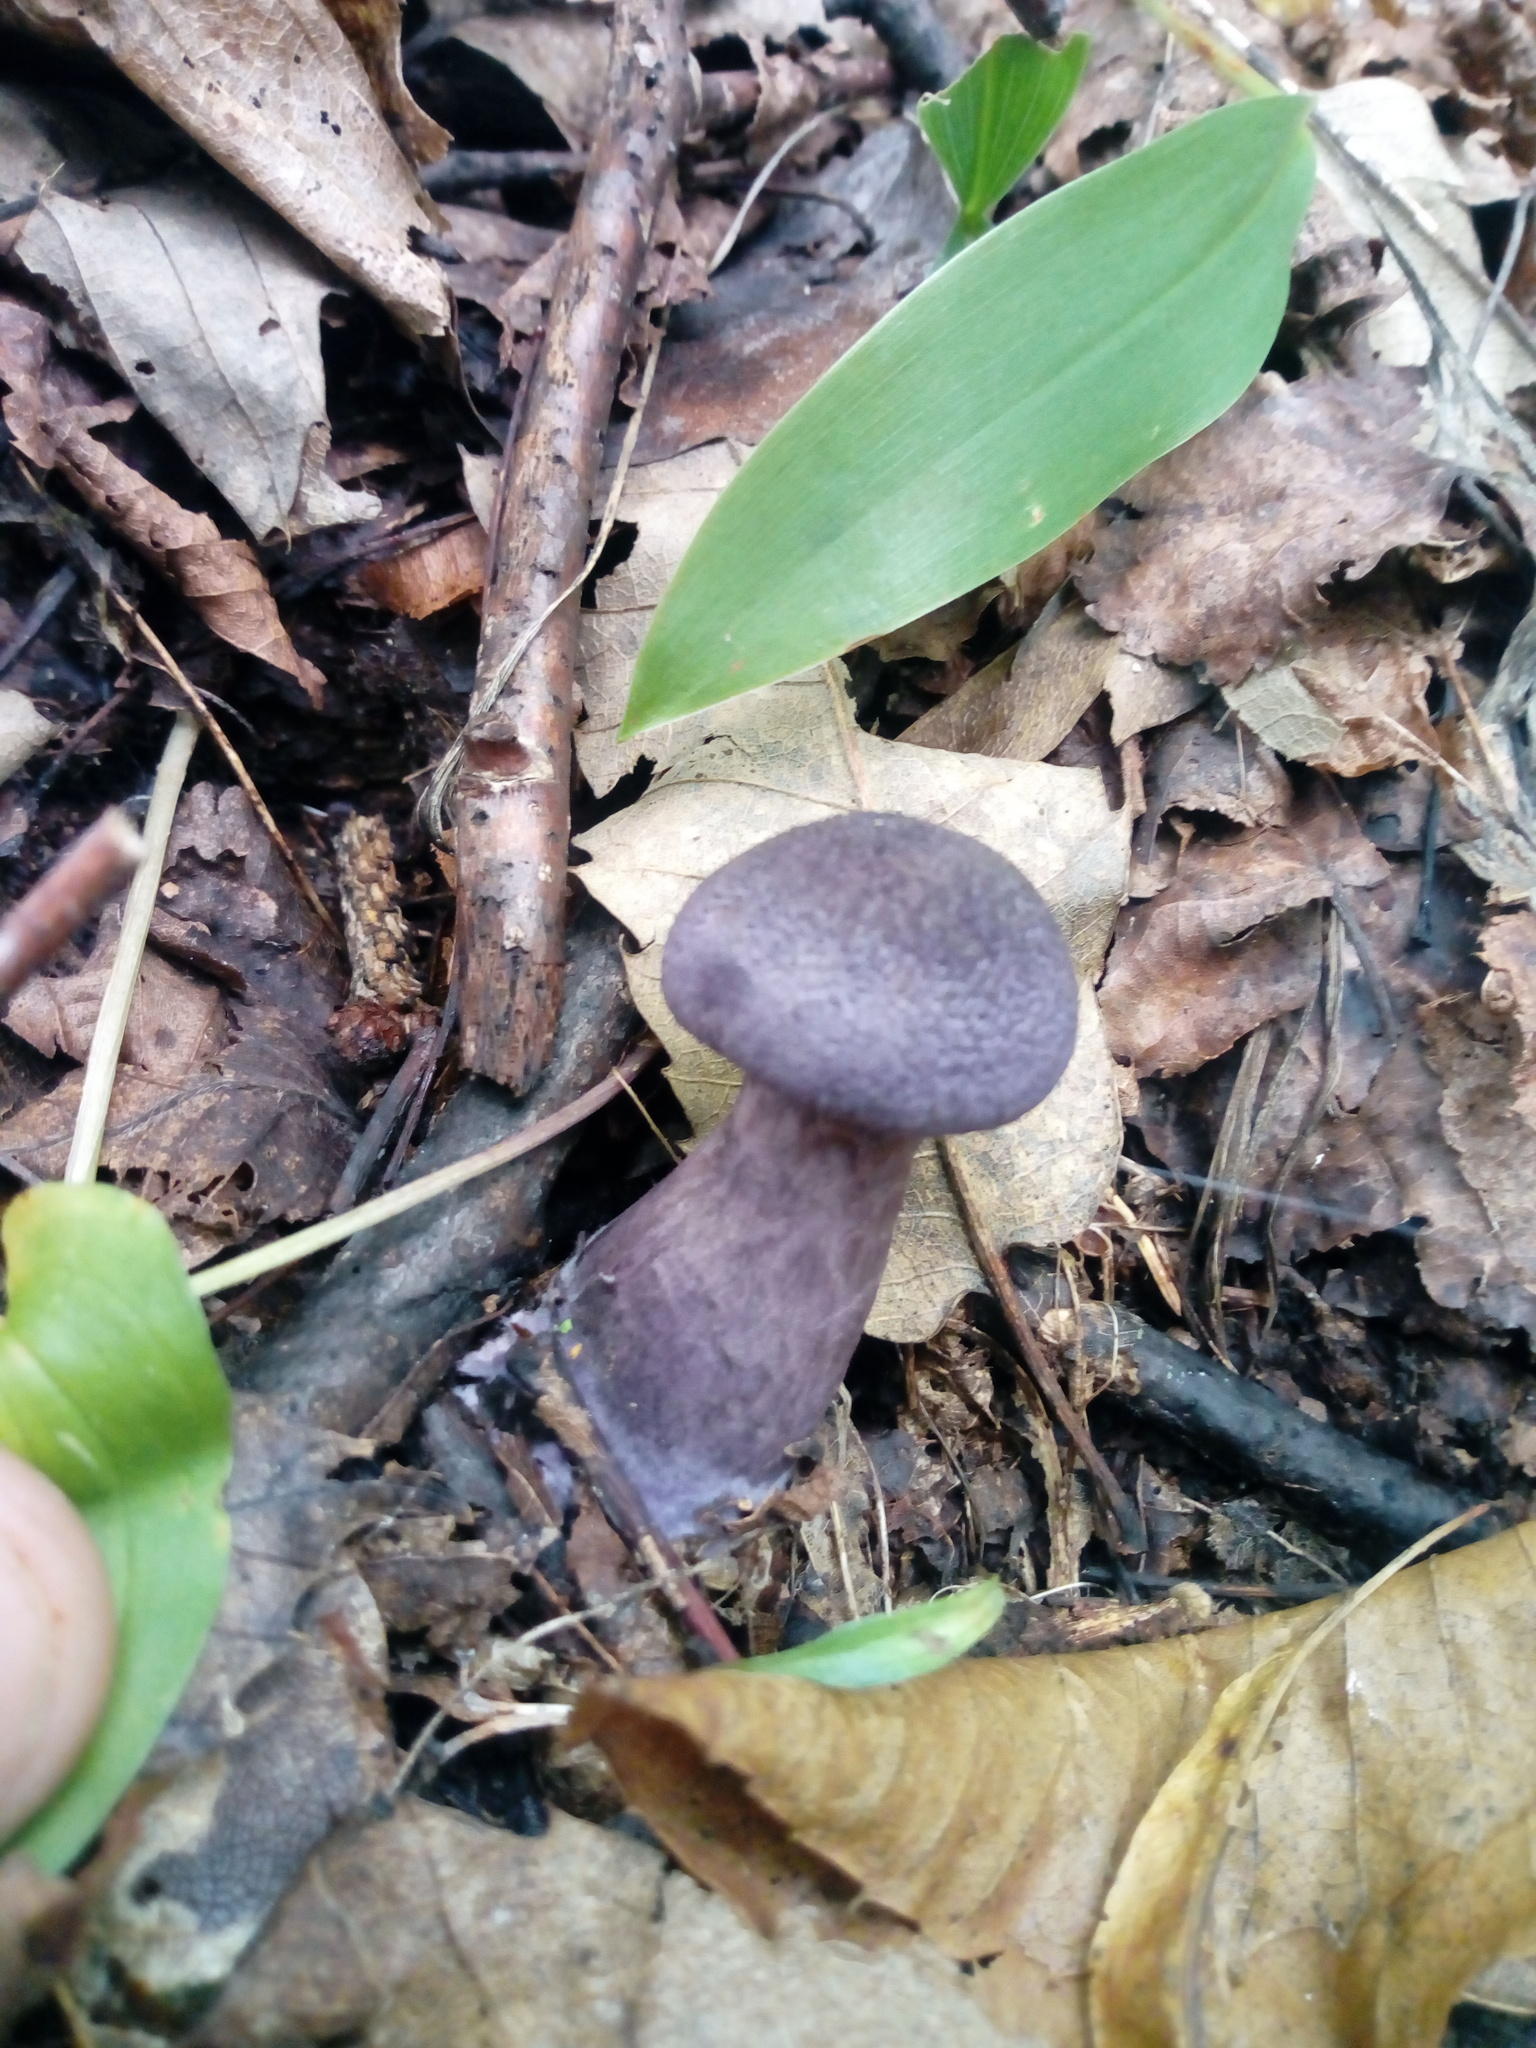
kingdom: Fungi
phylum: Basidiomycota
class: Agaricomycetes
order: Agaricales
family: Cortinariaceae
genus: Cortinarius
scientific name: Cortinarius violaceus
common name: Violet webcap
